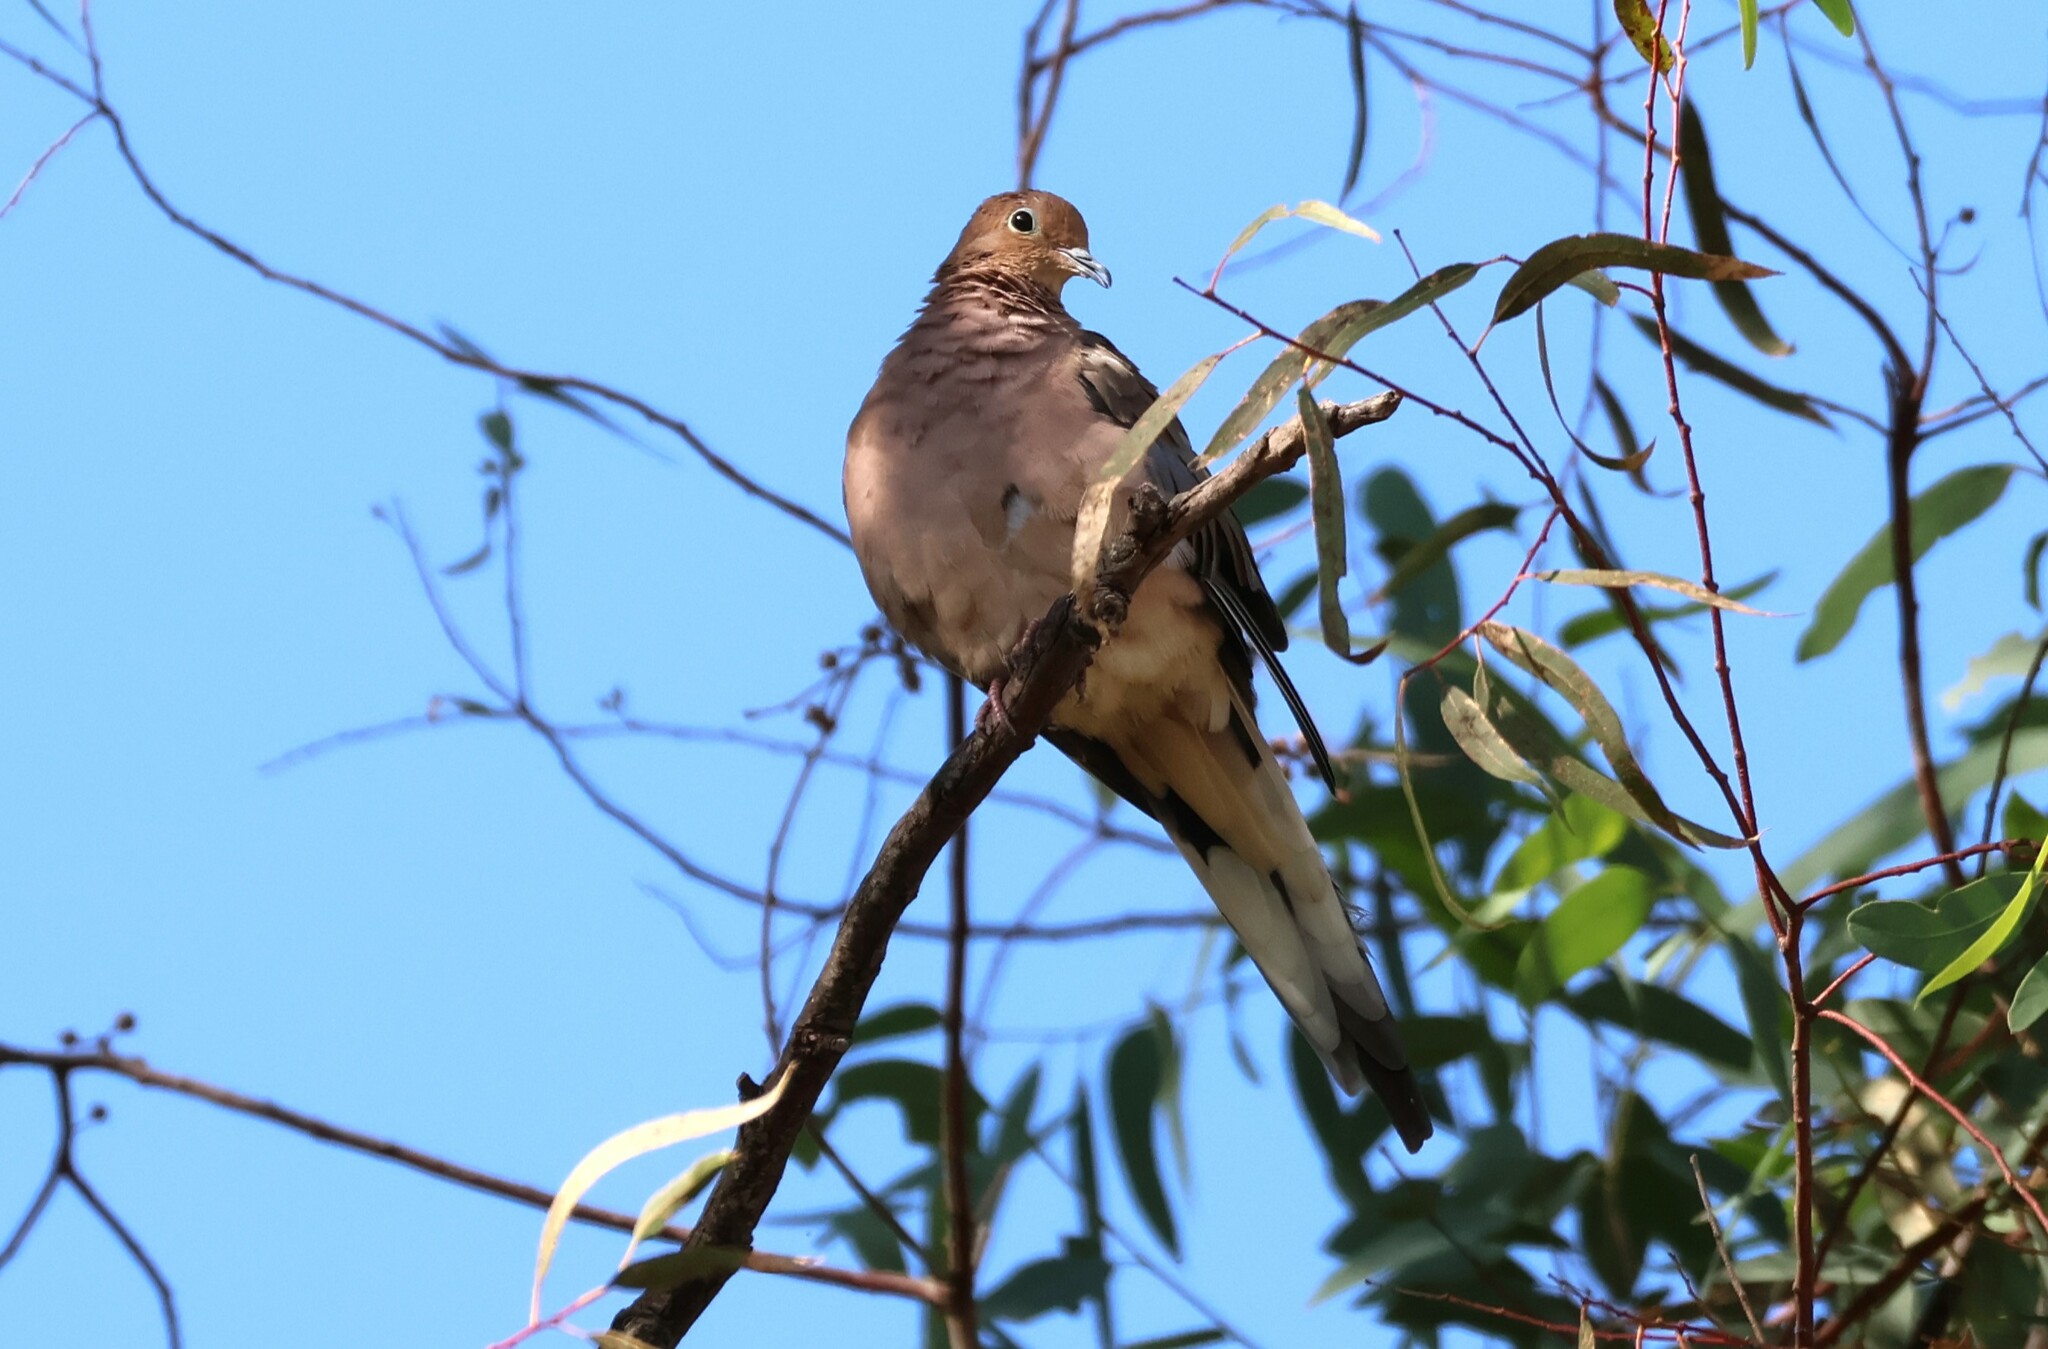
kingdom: Animalia
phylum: Chordata
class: Aves
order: Columbiformes
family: Columbidae
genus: Zenaida
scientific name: Zenaida macroura
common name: Mourning dove
